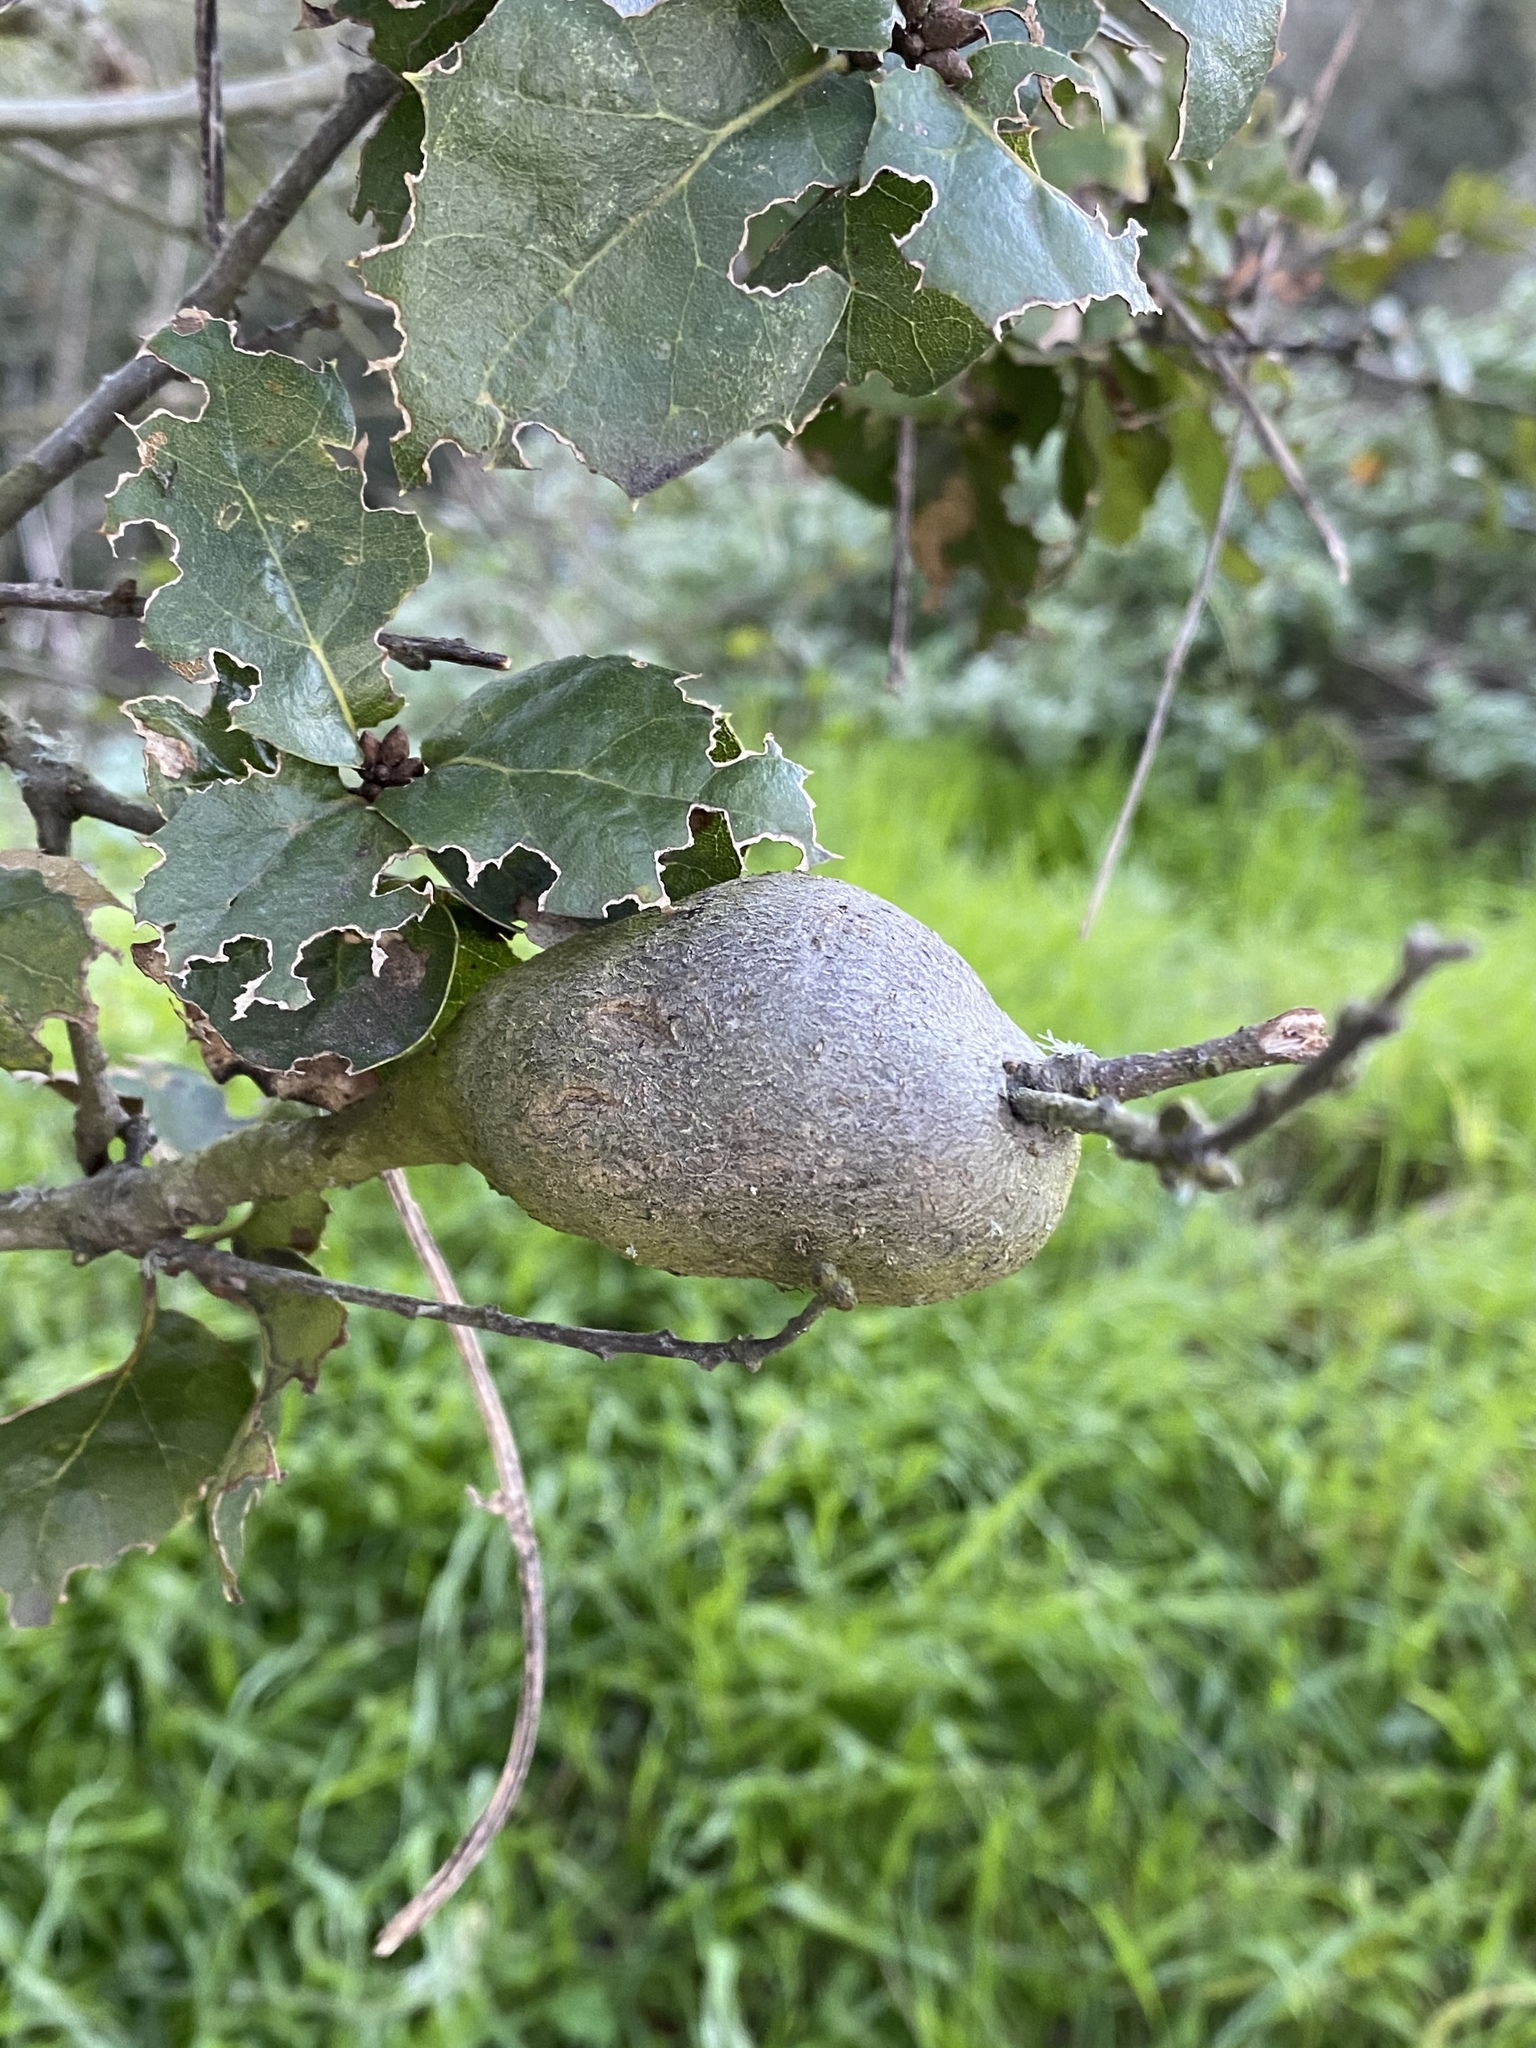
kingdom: Animalia
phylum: Arthropoda
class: Insecta
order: Hymenoptera
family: Cynipidae
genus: Callirhytis
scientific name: Callirhytis
